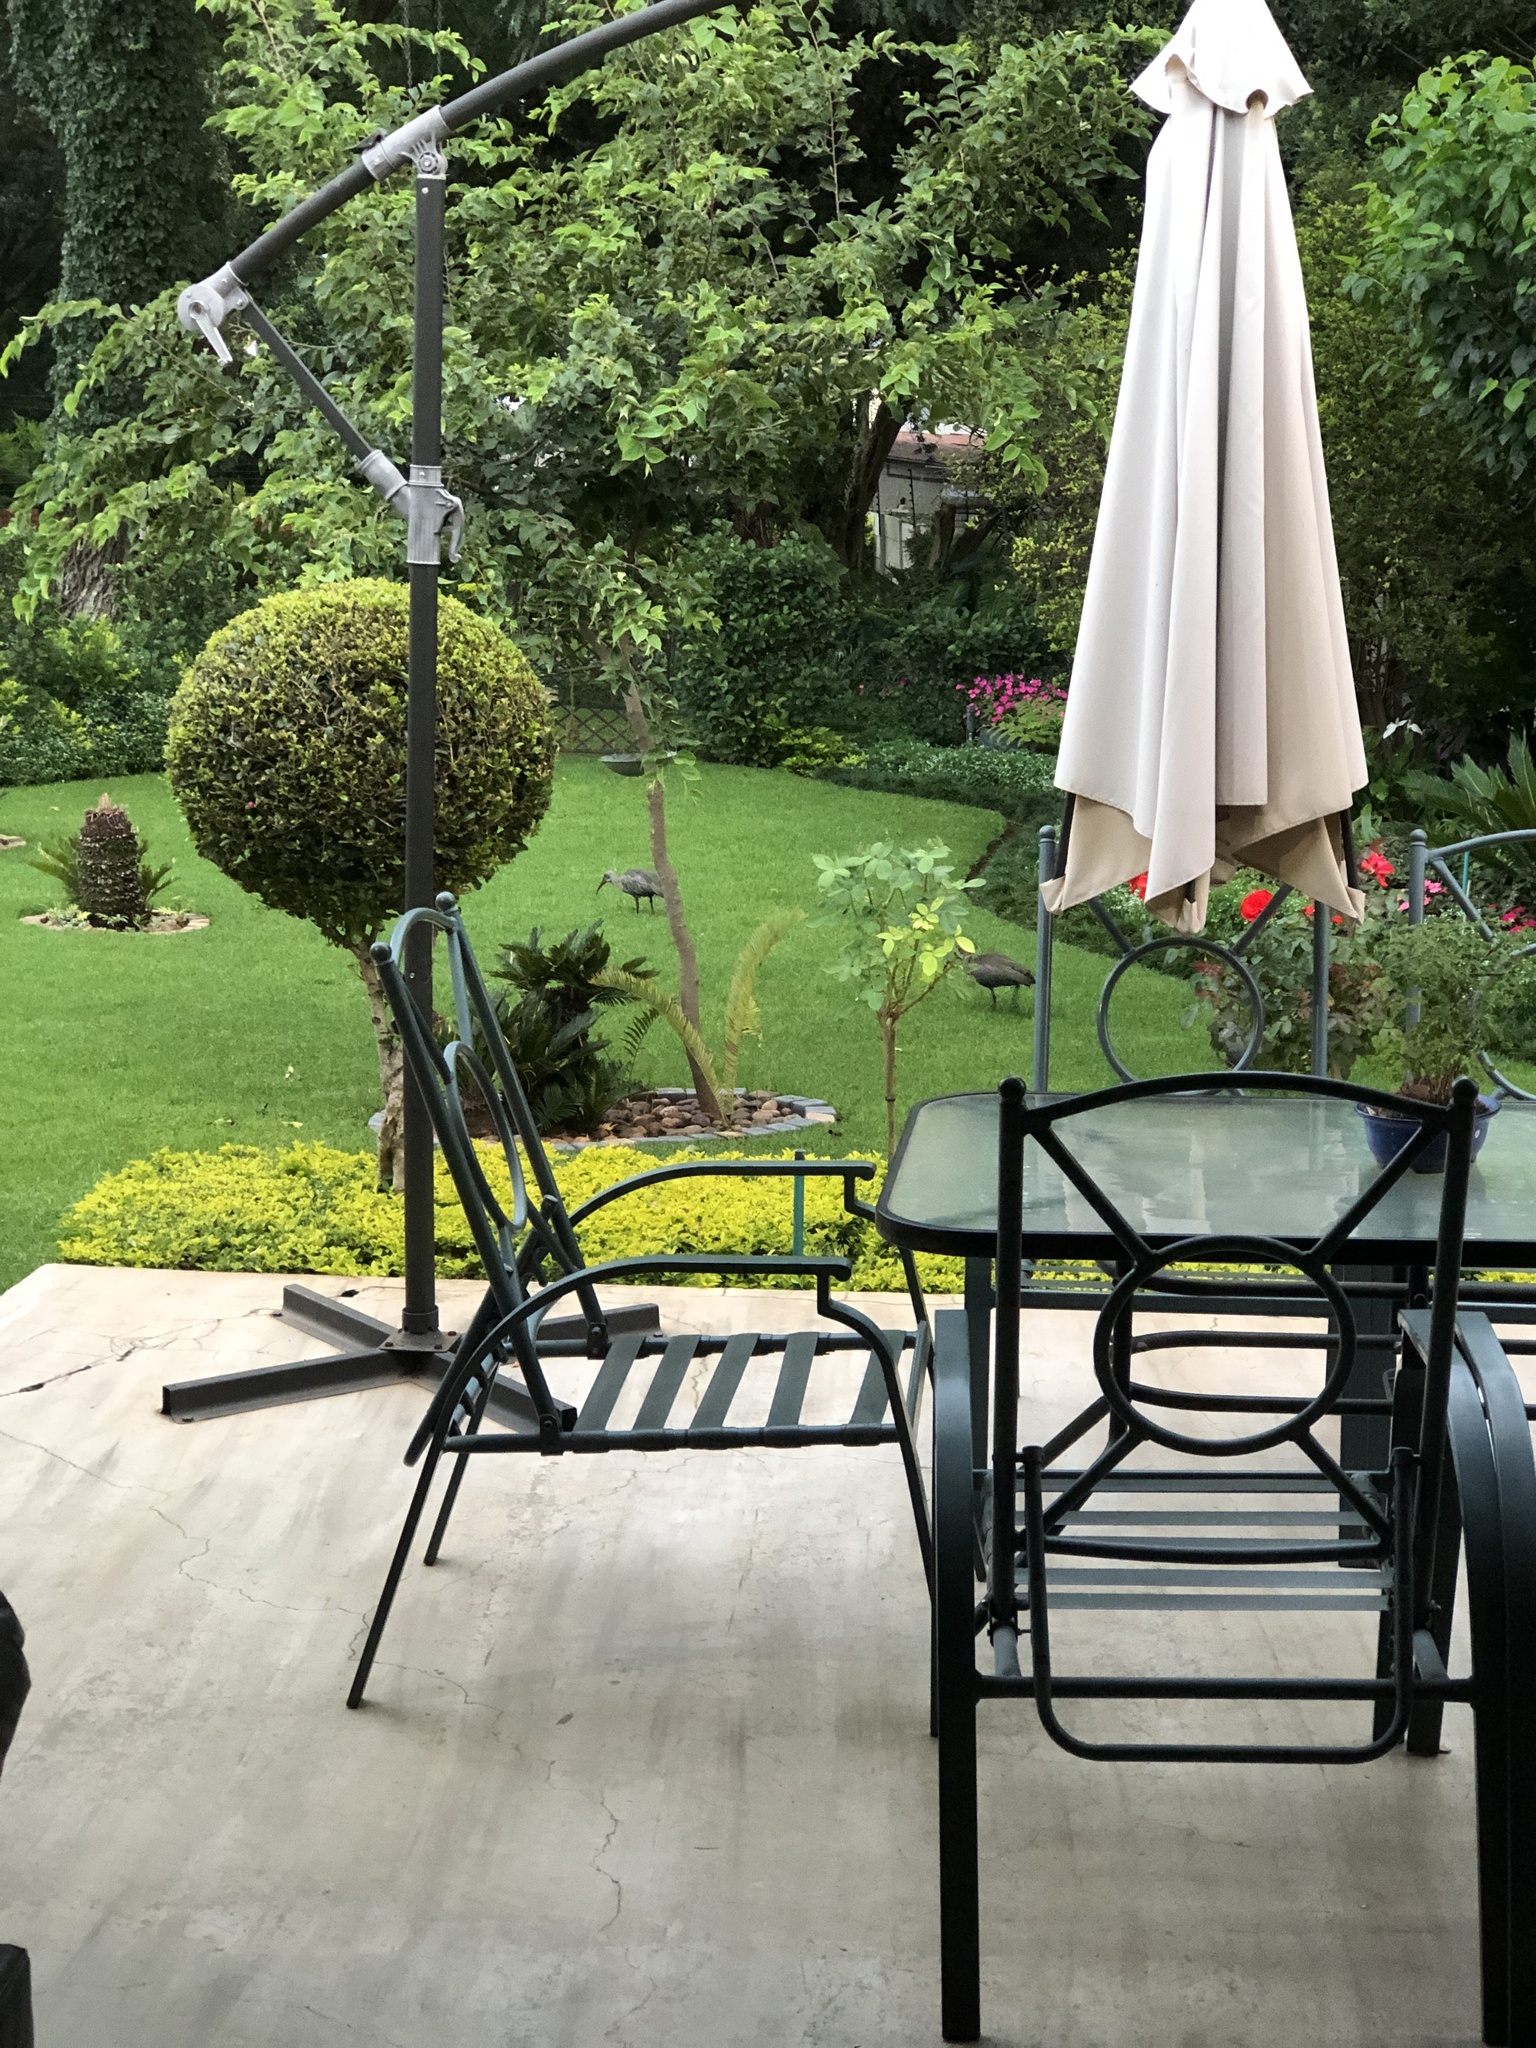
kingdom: Animalia
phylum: Chordata
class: Aves
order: Pelecaniformes
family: Threskiornithidae
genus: Bostrychia
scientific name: Bostrychia hagedash
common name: Hadada ibis
